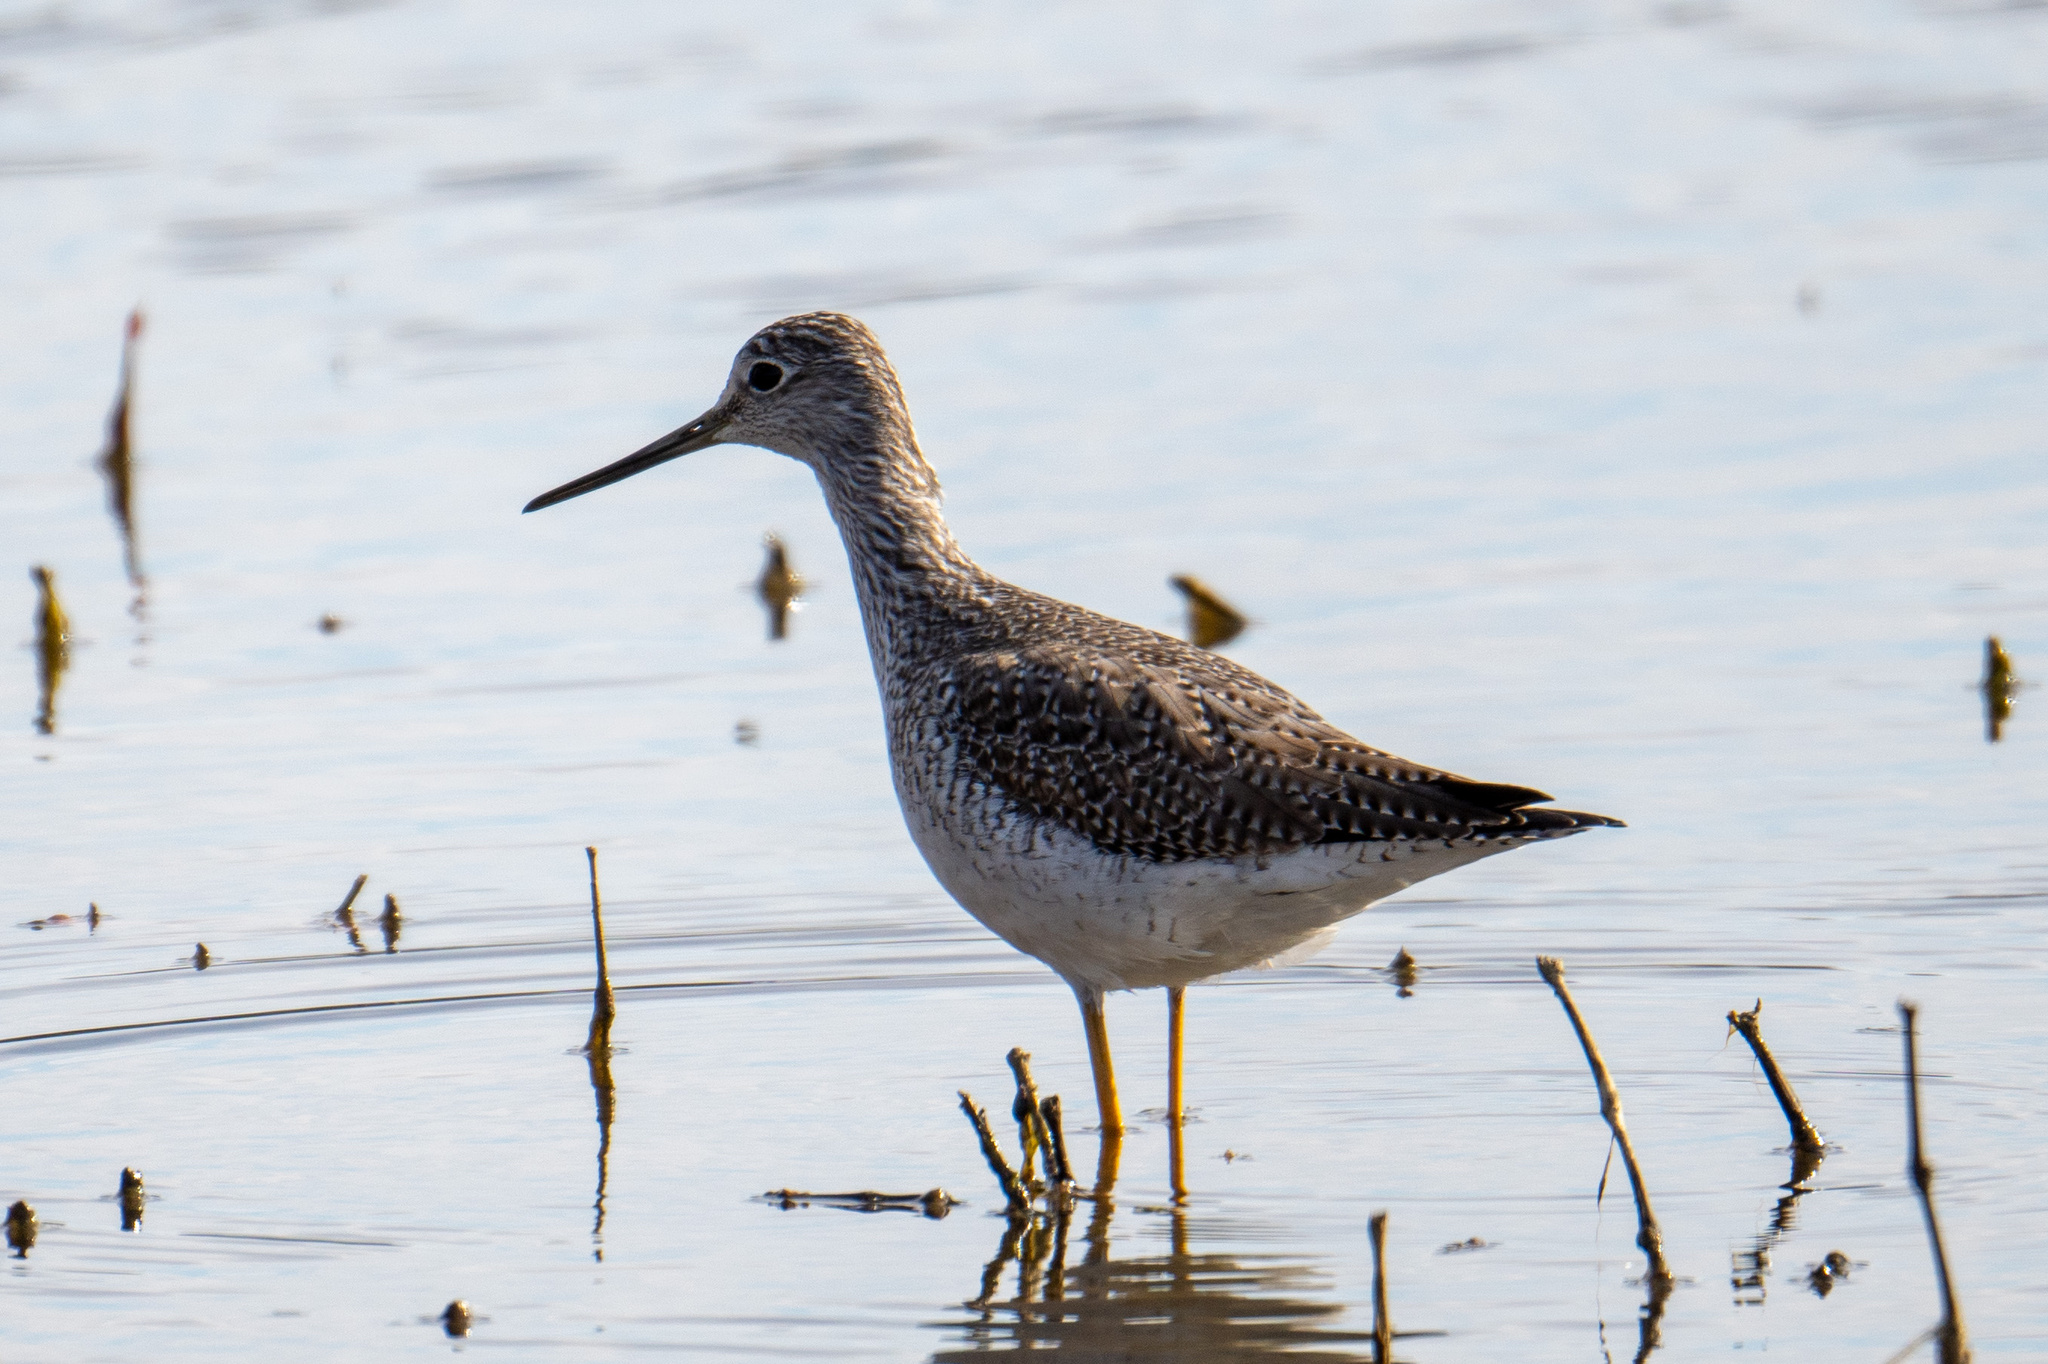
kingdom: Animalia
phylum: Chordata
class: Aves
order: Charadriiformes
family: Scolopacidae
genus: Tringa
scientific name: Tringa melanoleuca
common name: Greater yellowlegs
